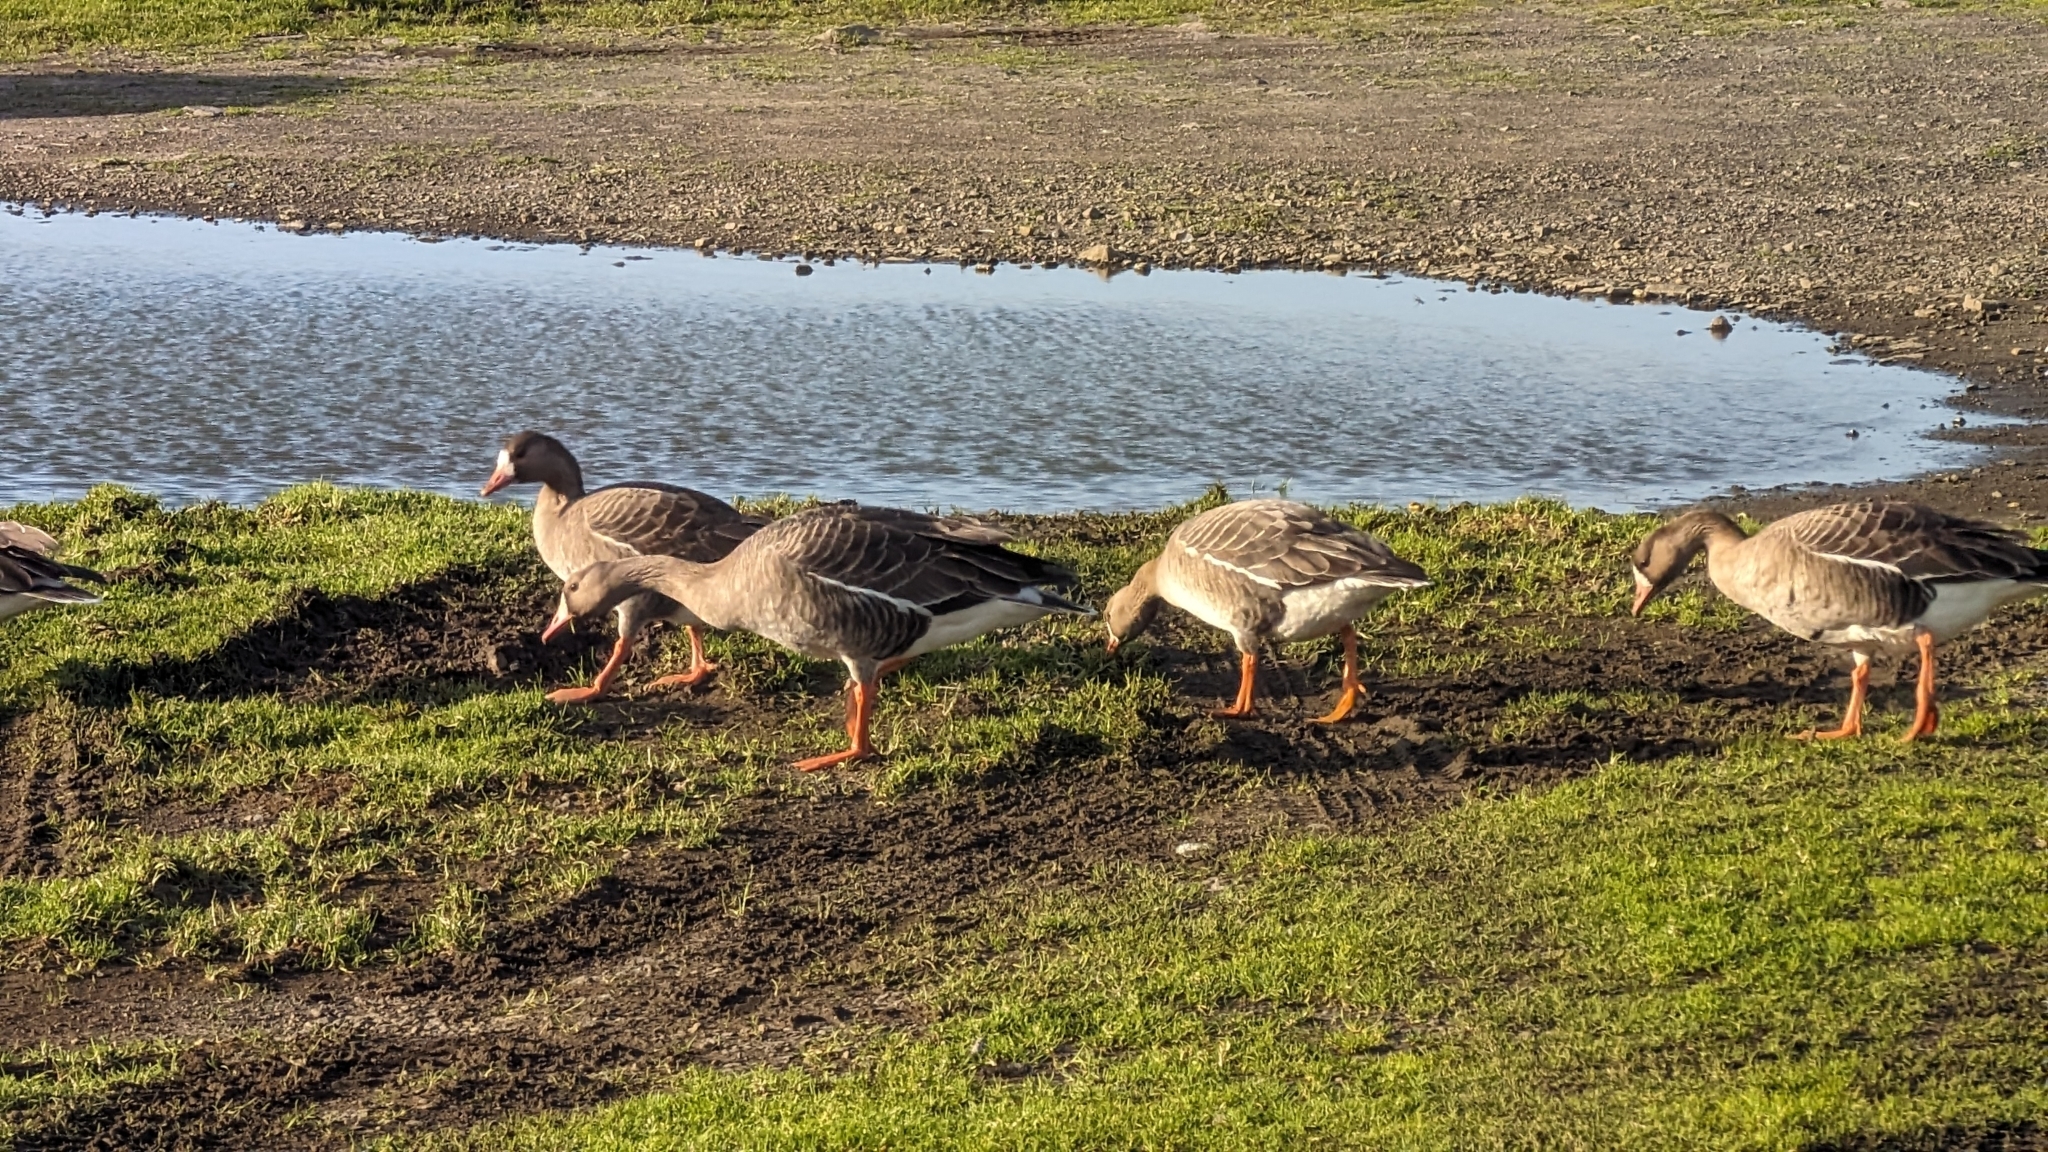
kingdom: Animalia
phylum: Chordata
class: Aves
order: Anseriformes
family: Anatidae
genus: Anser
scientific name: Anser albifrons
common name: Greater white-fronted goose
